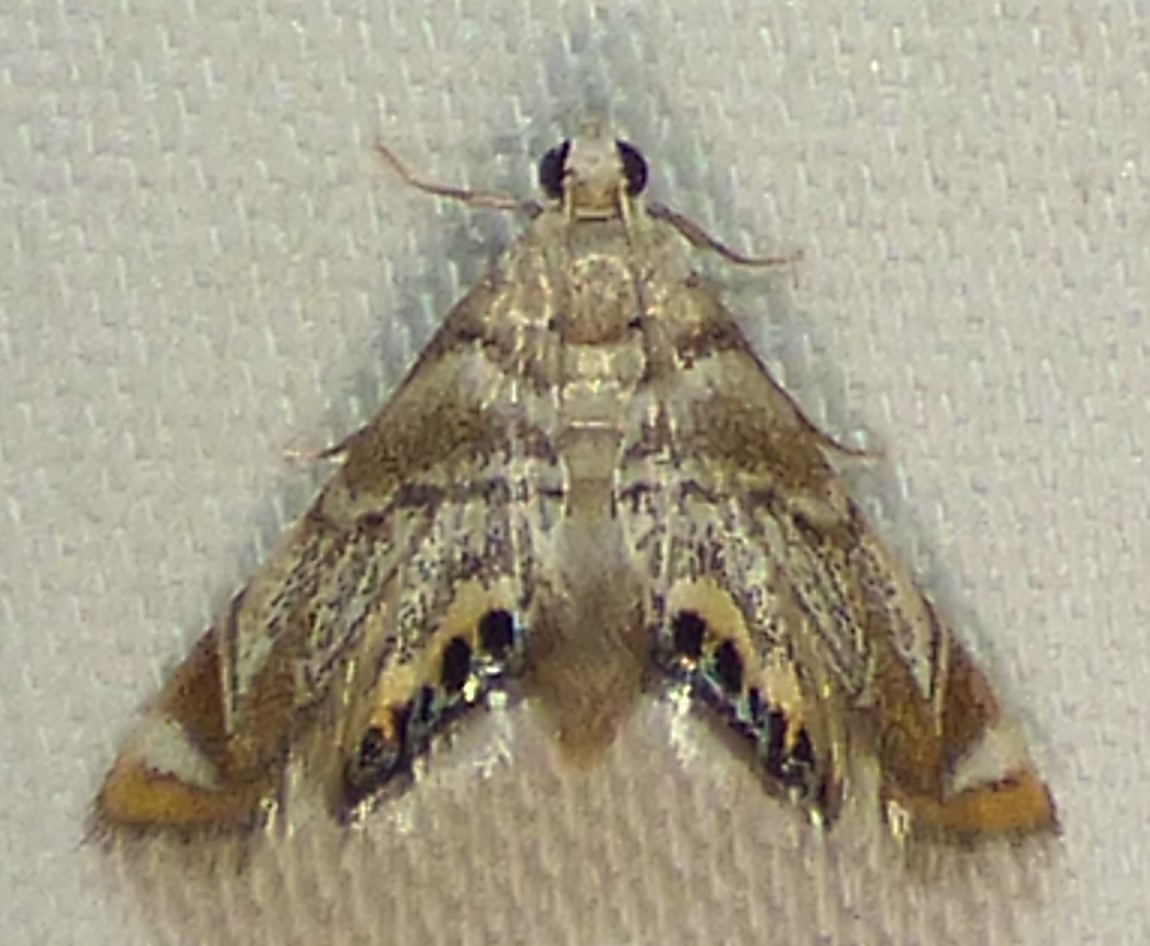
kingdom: Animalia
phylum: Arthropoda
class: Insecta
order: Lepidoptera
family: Crambidae
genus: Eoparargyractis
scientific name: Eoparargyractis irroratalis
